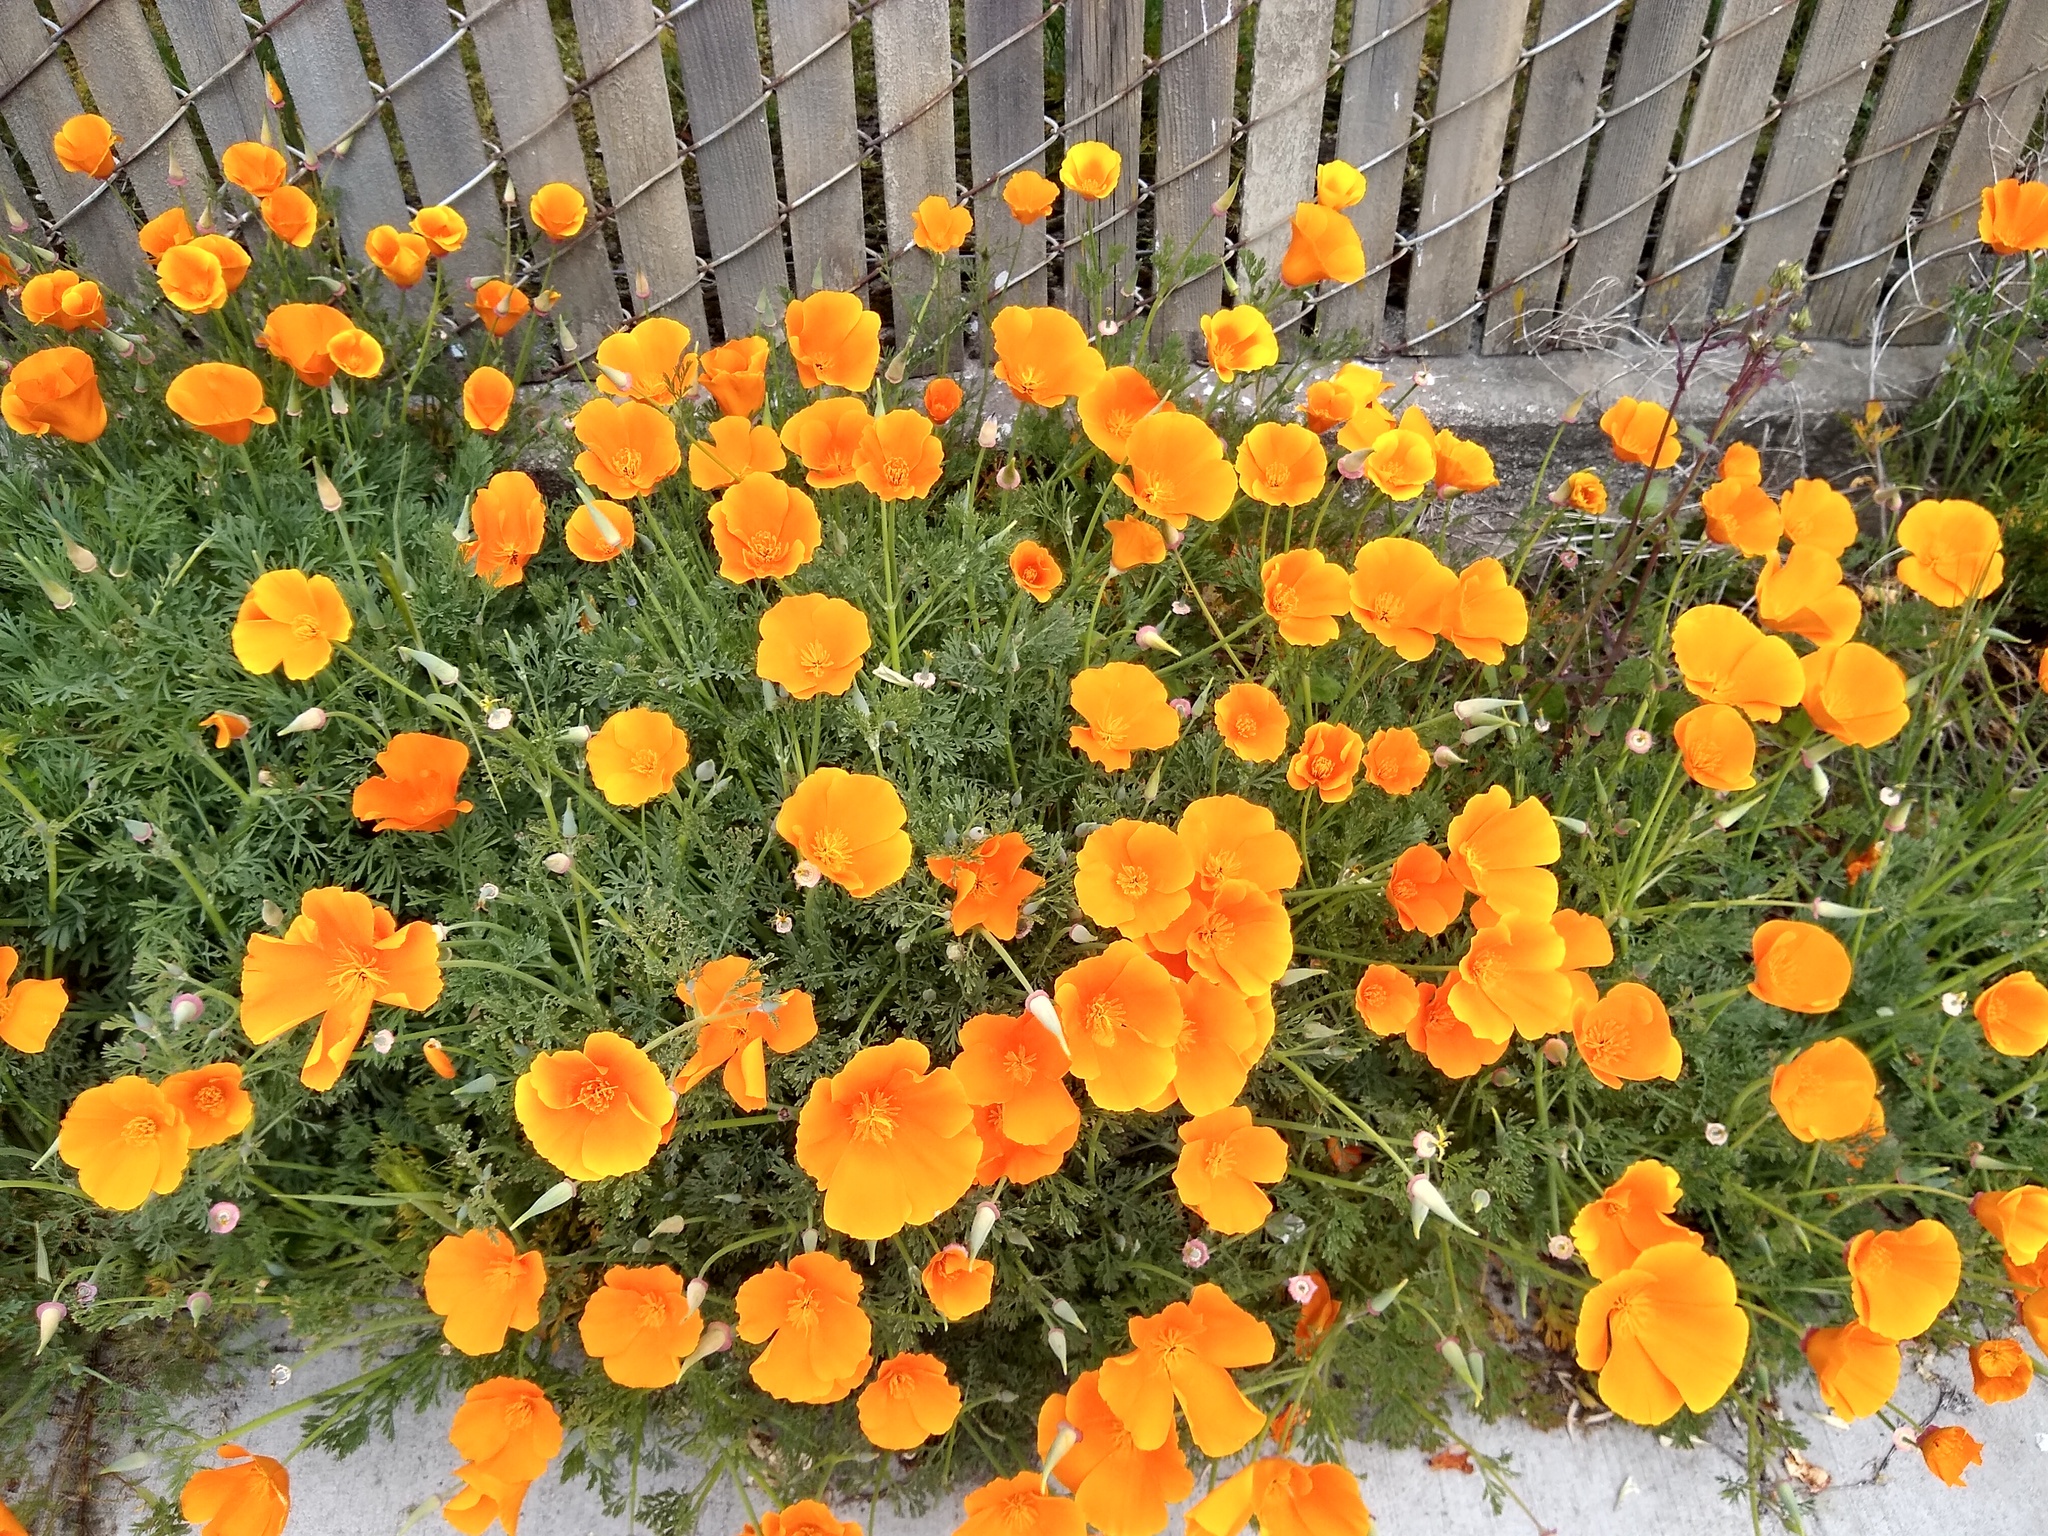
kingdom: Plantae
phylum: Tracheophyta
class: Magnoliopsida
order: Ranunculales
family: Papaveraceae
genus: Eschscholzia
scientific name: Eschscholzia californica
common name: California poppy
